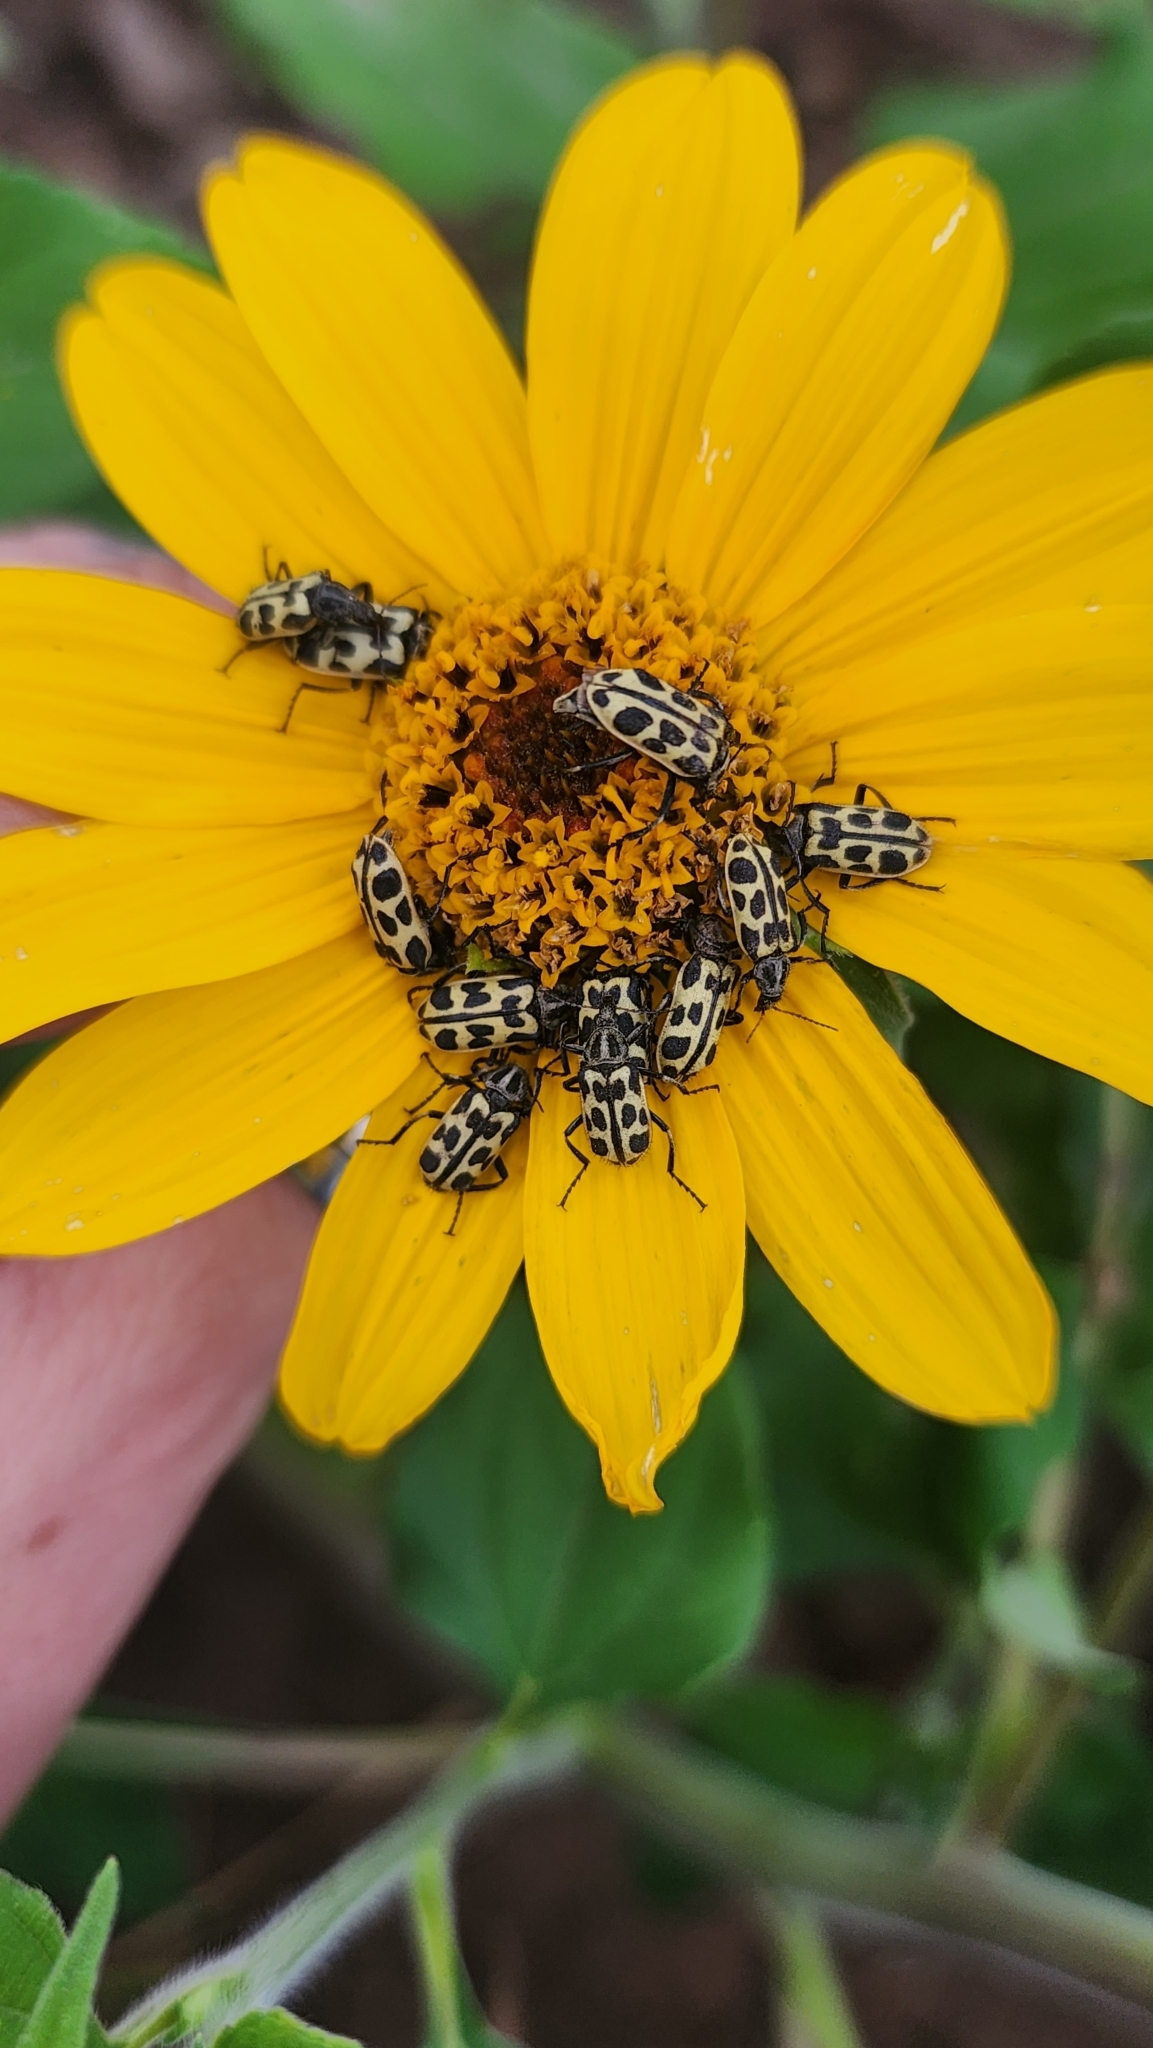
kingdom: Animalia
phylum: Arthropoda
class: Insecta
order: Coleoptera
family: Melyridae
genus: Astylus
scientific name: Astylus atromaculatus
